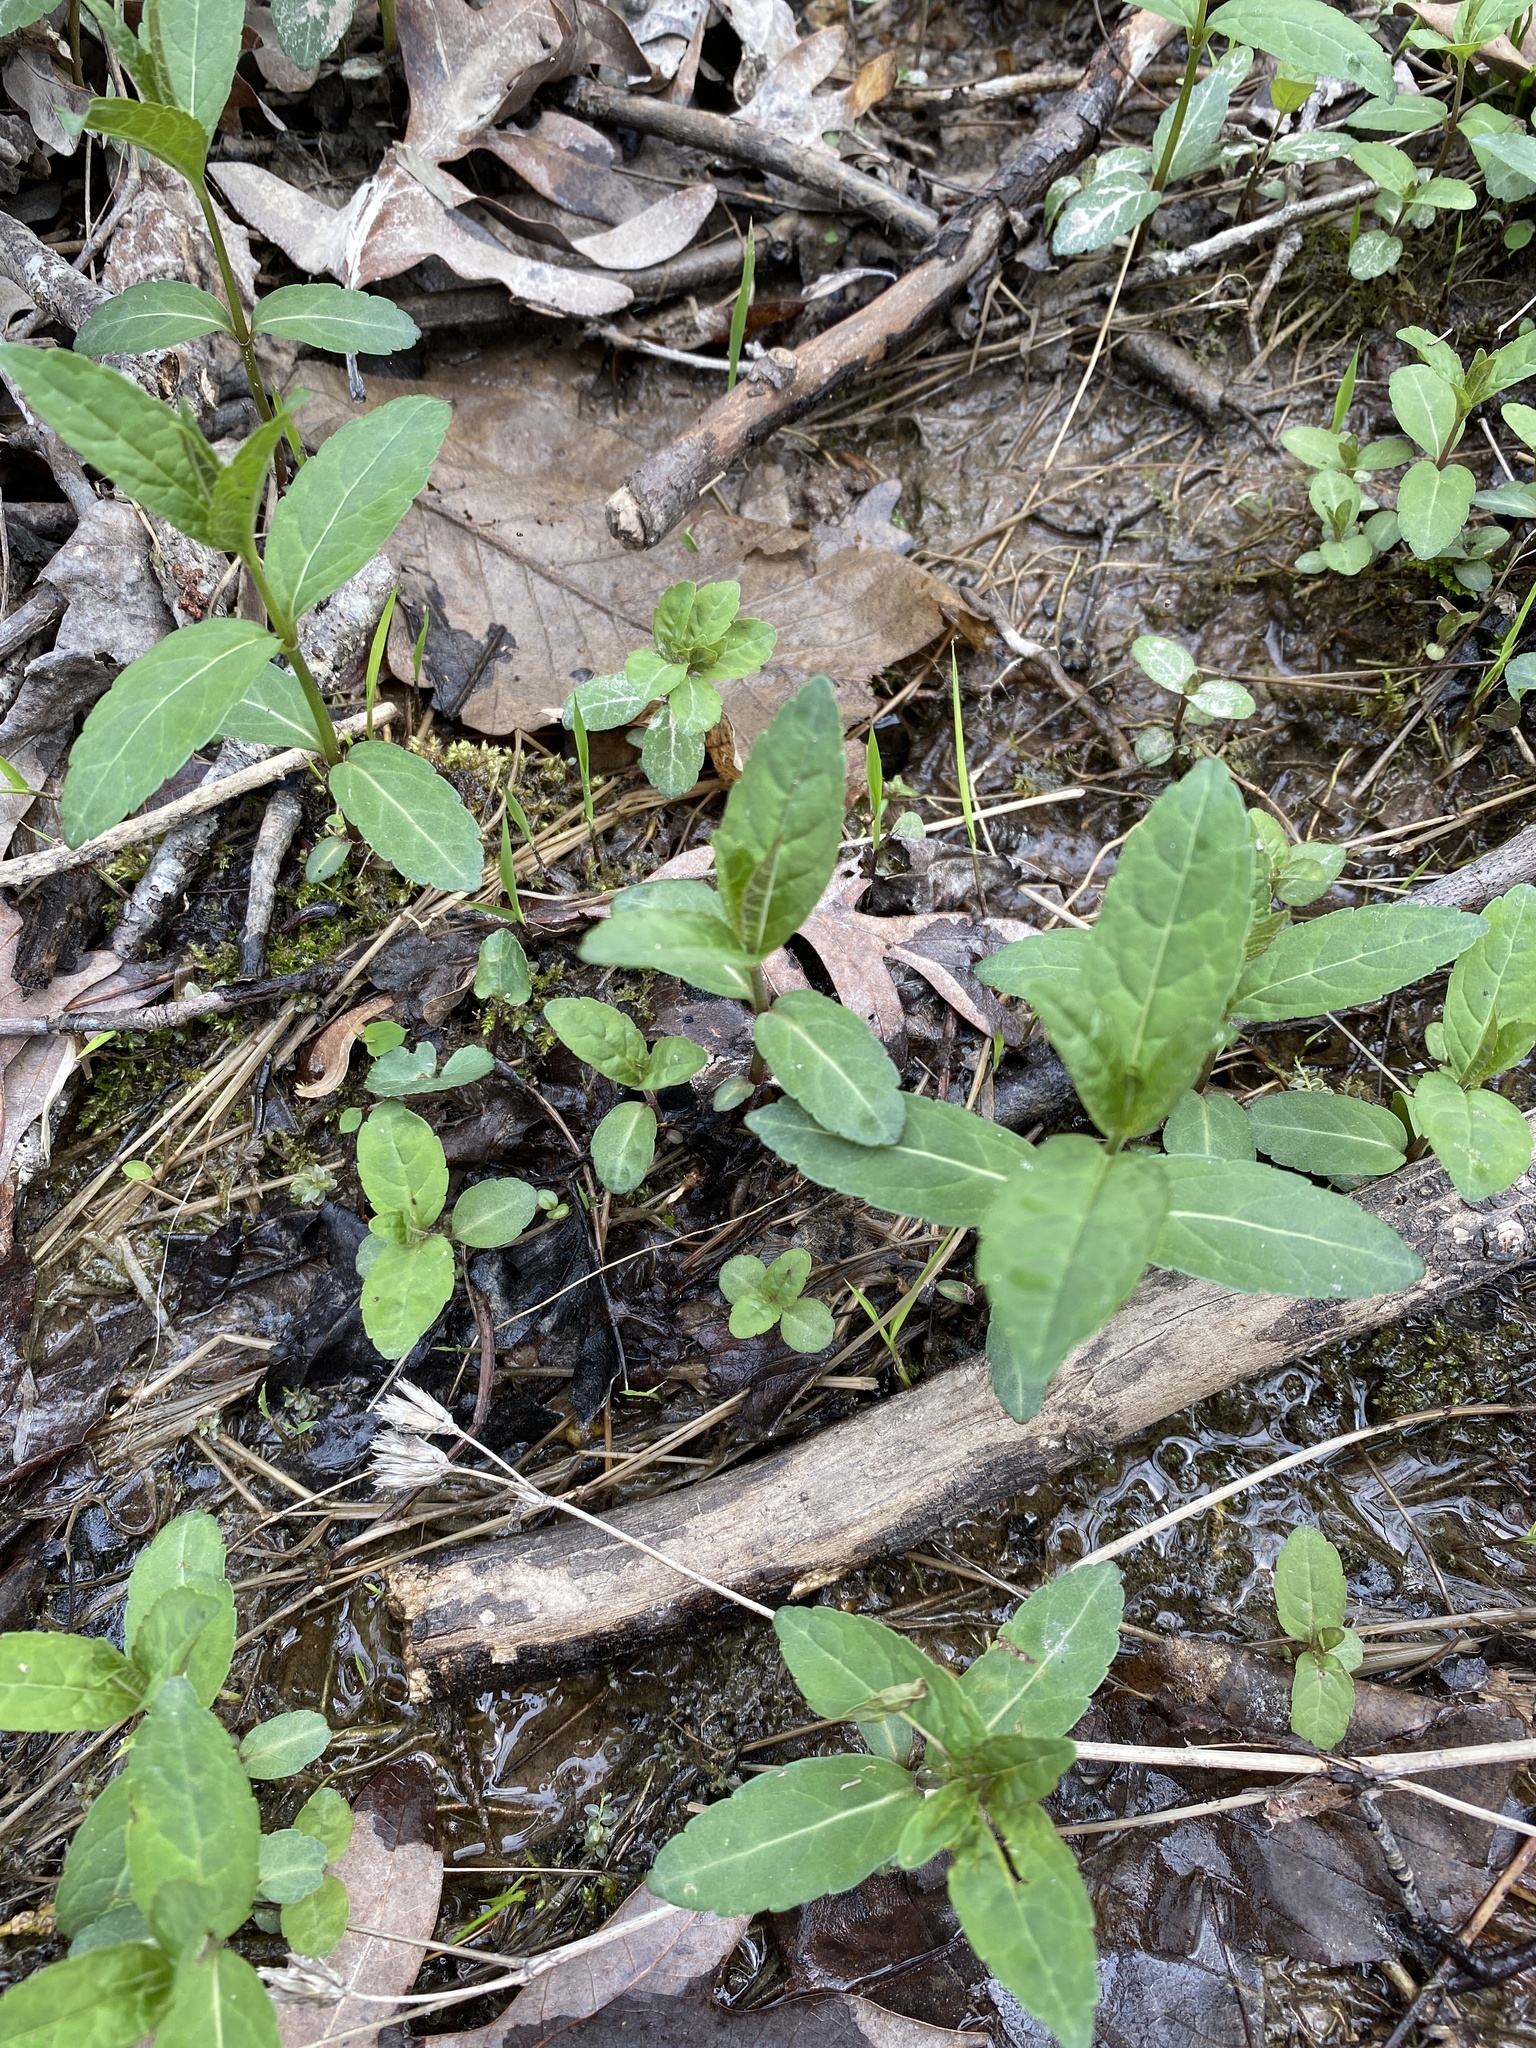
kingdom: Plantae
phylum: Tracheophyta
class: Magnoliopsida
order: Lamiales
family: Plantaginaceae
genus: Chelone
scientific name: Chelone glabra
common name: Snakehead
